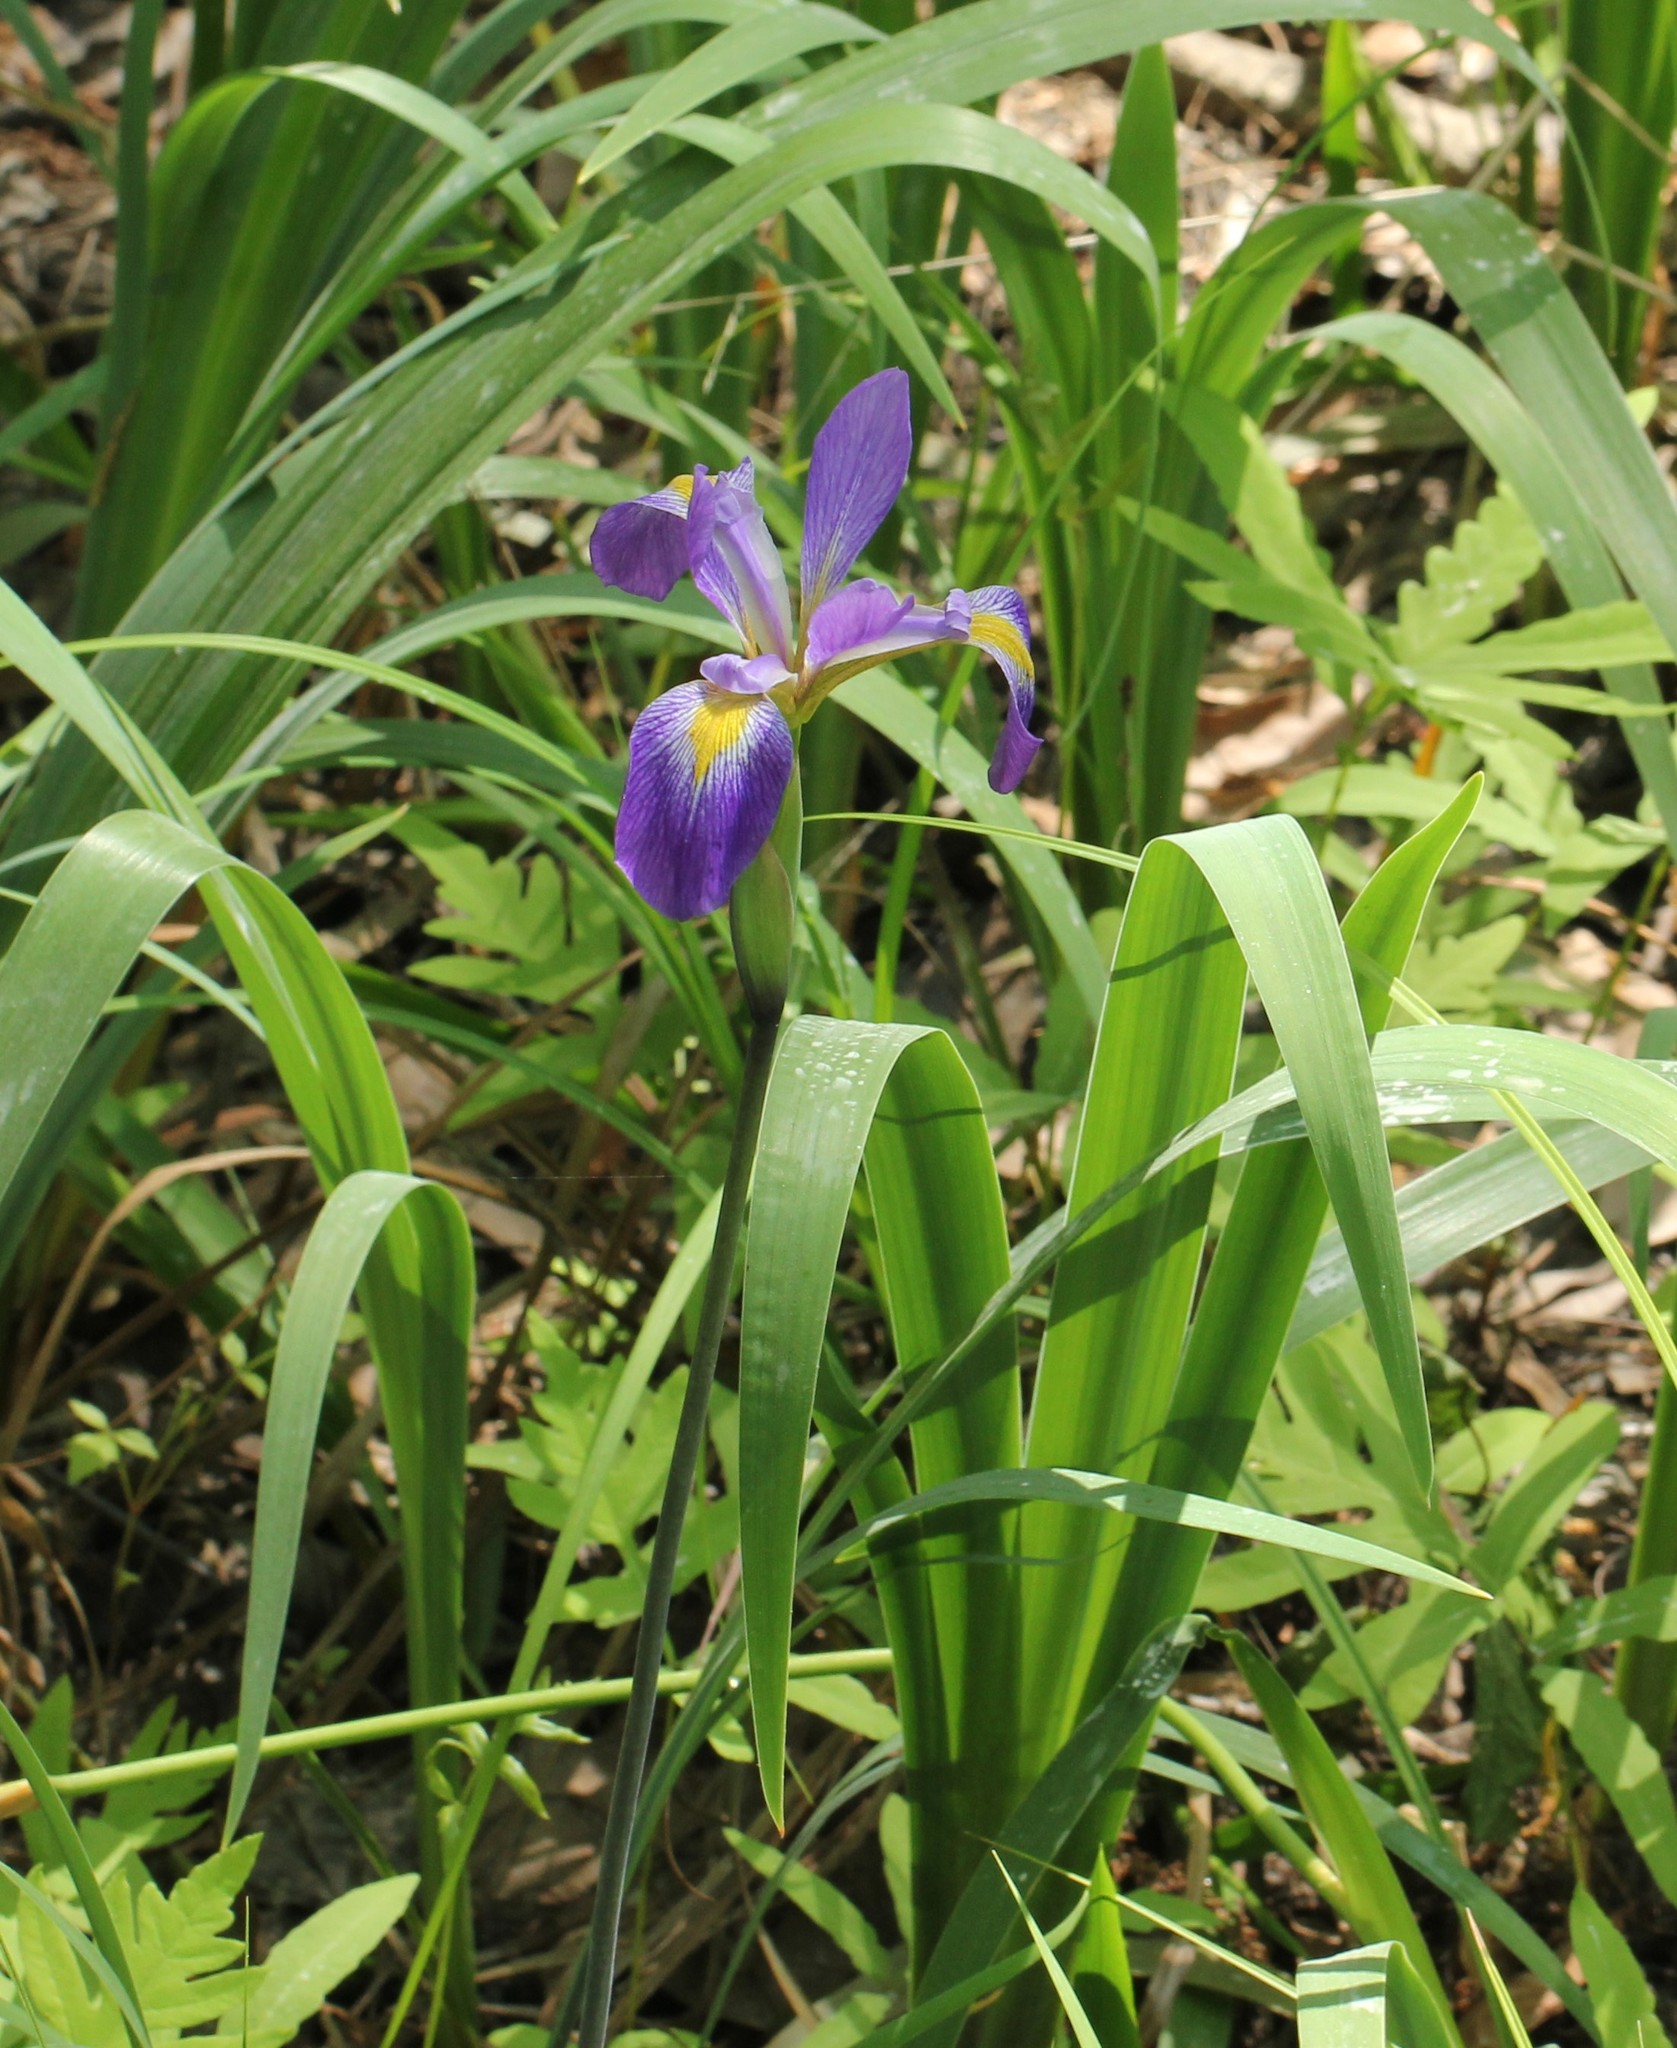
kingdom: Plantae
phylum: Tracheophyta
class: Liliopsida
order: Asparagales
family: Iridaceae
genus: Iris
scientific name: Iris virginica
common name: Southern blue flag
